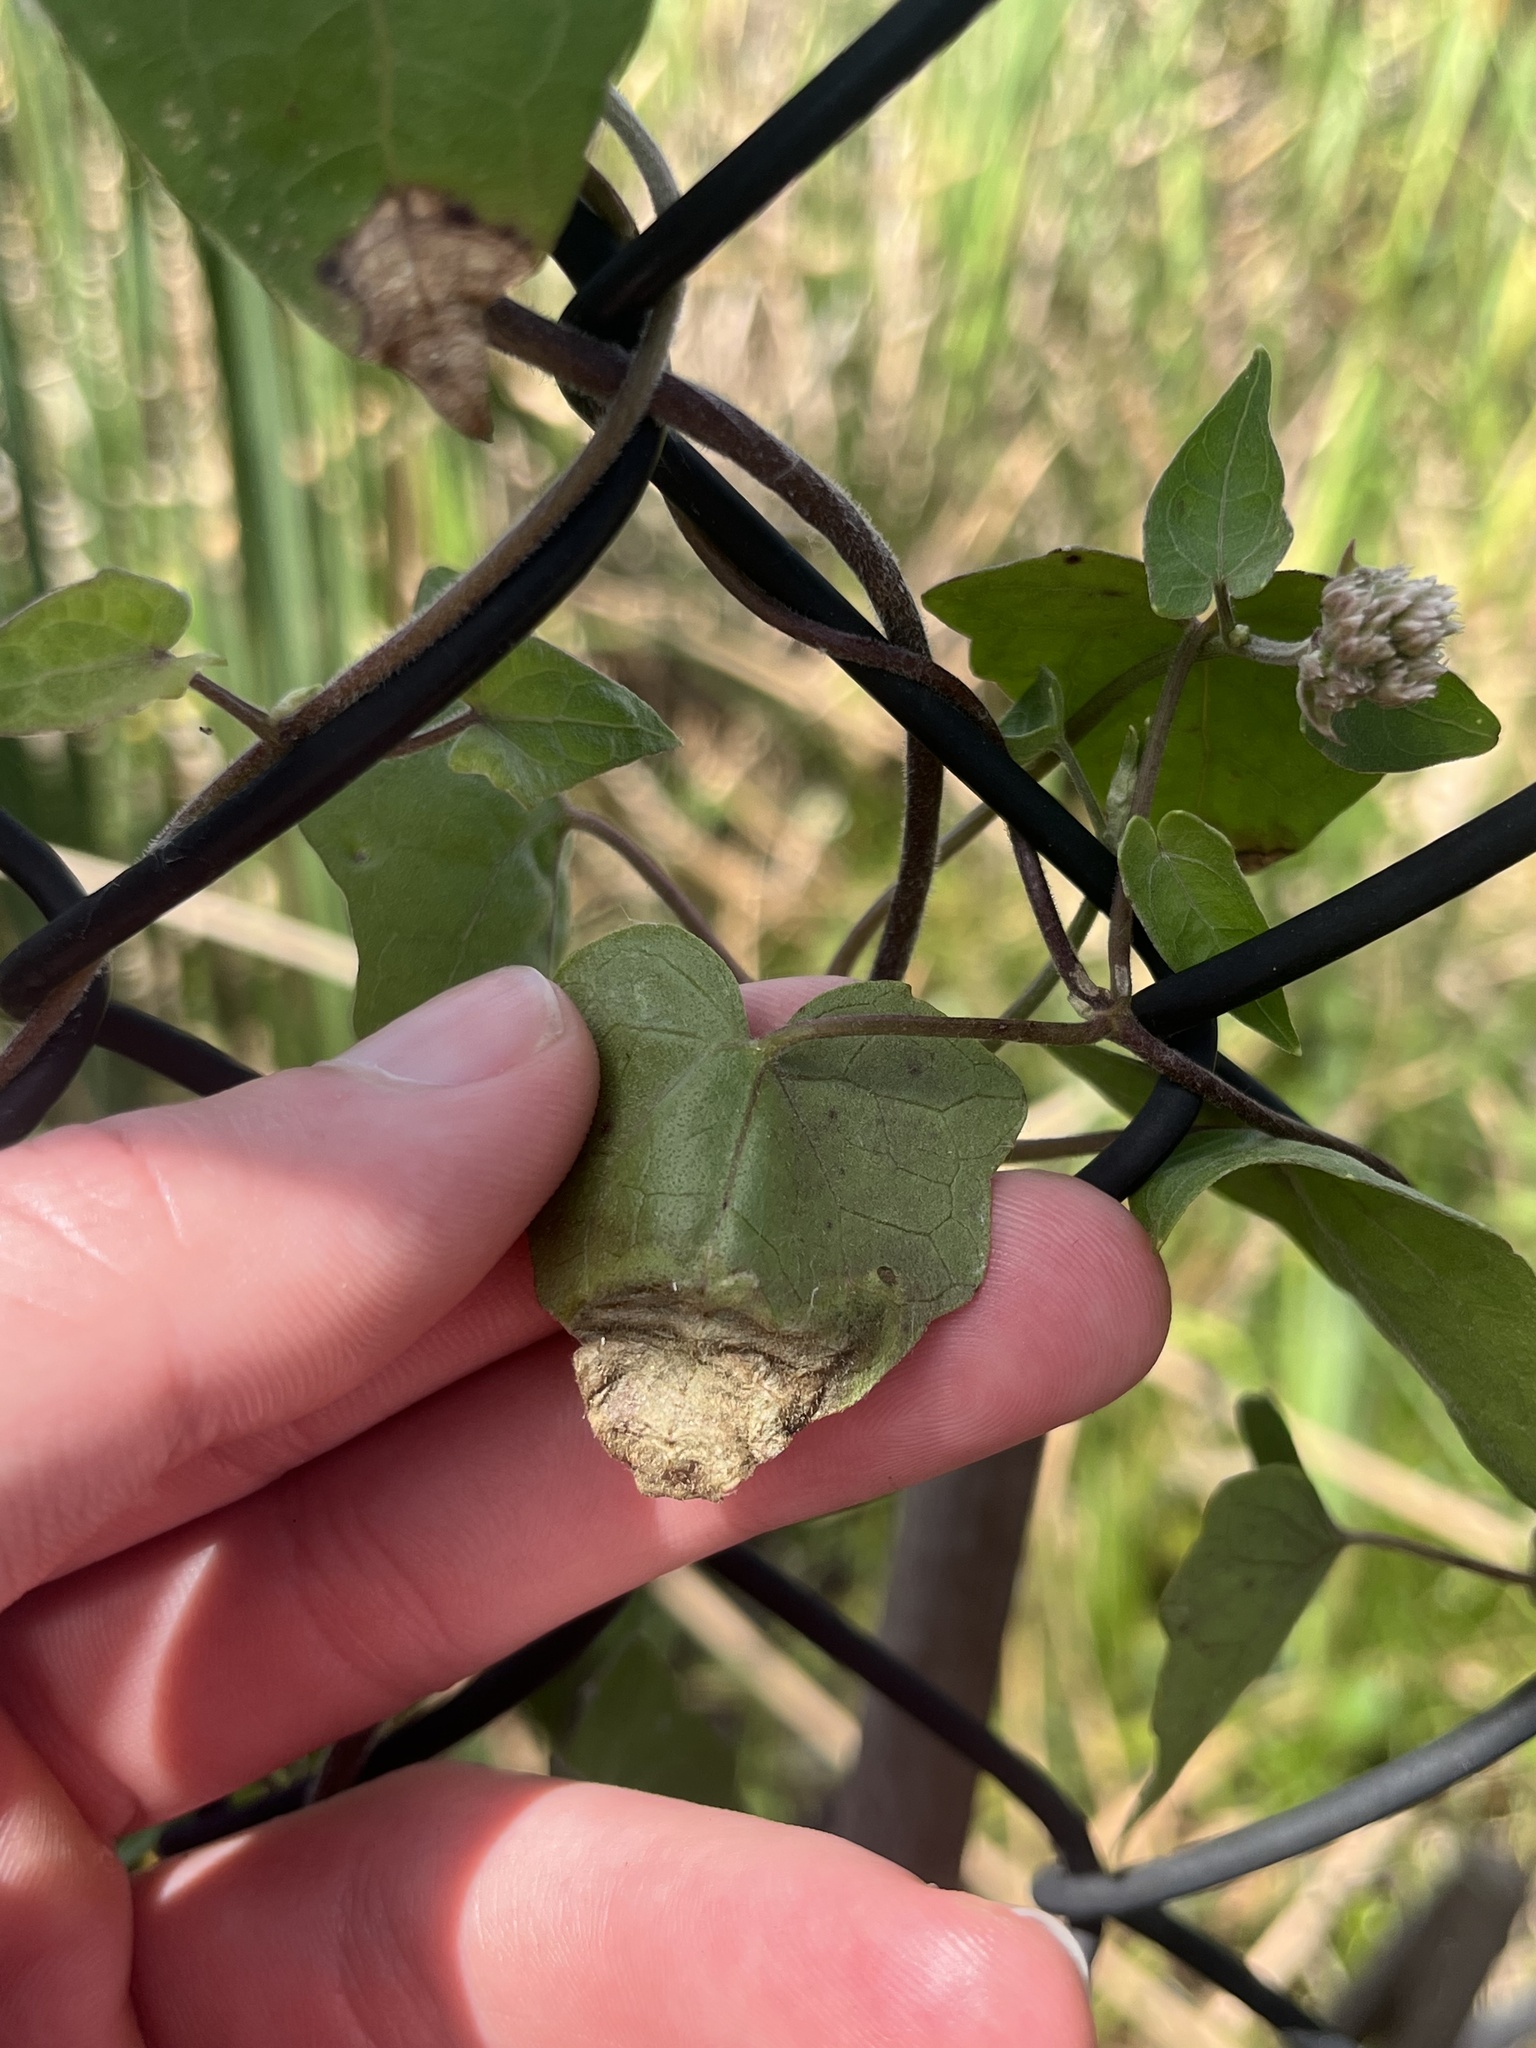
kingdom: Animalia
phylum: Arthropoda
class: Insecta
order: Lepidoptera
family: Gracillariidae
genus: Leucospilapteryx
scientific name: Leucospilapteryx venustella
